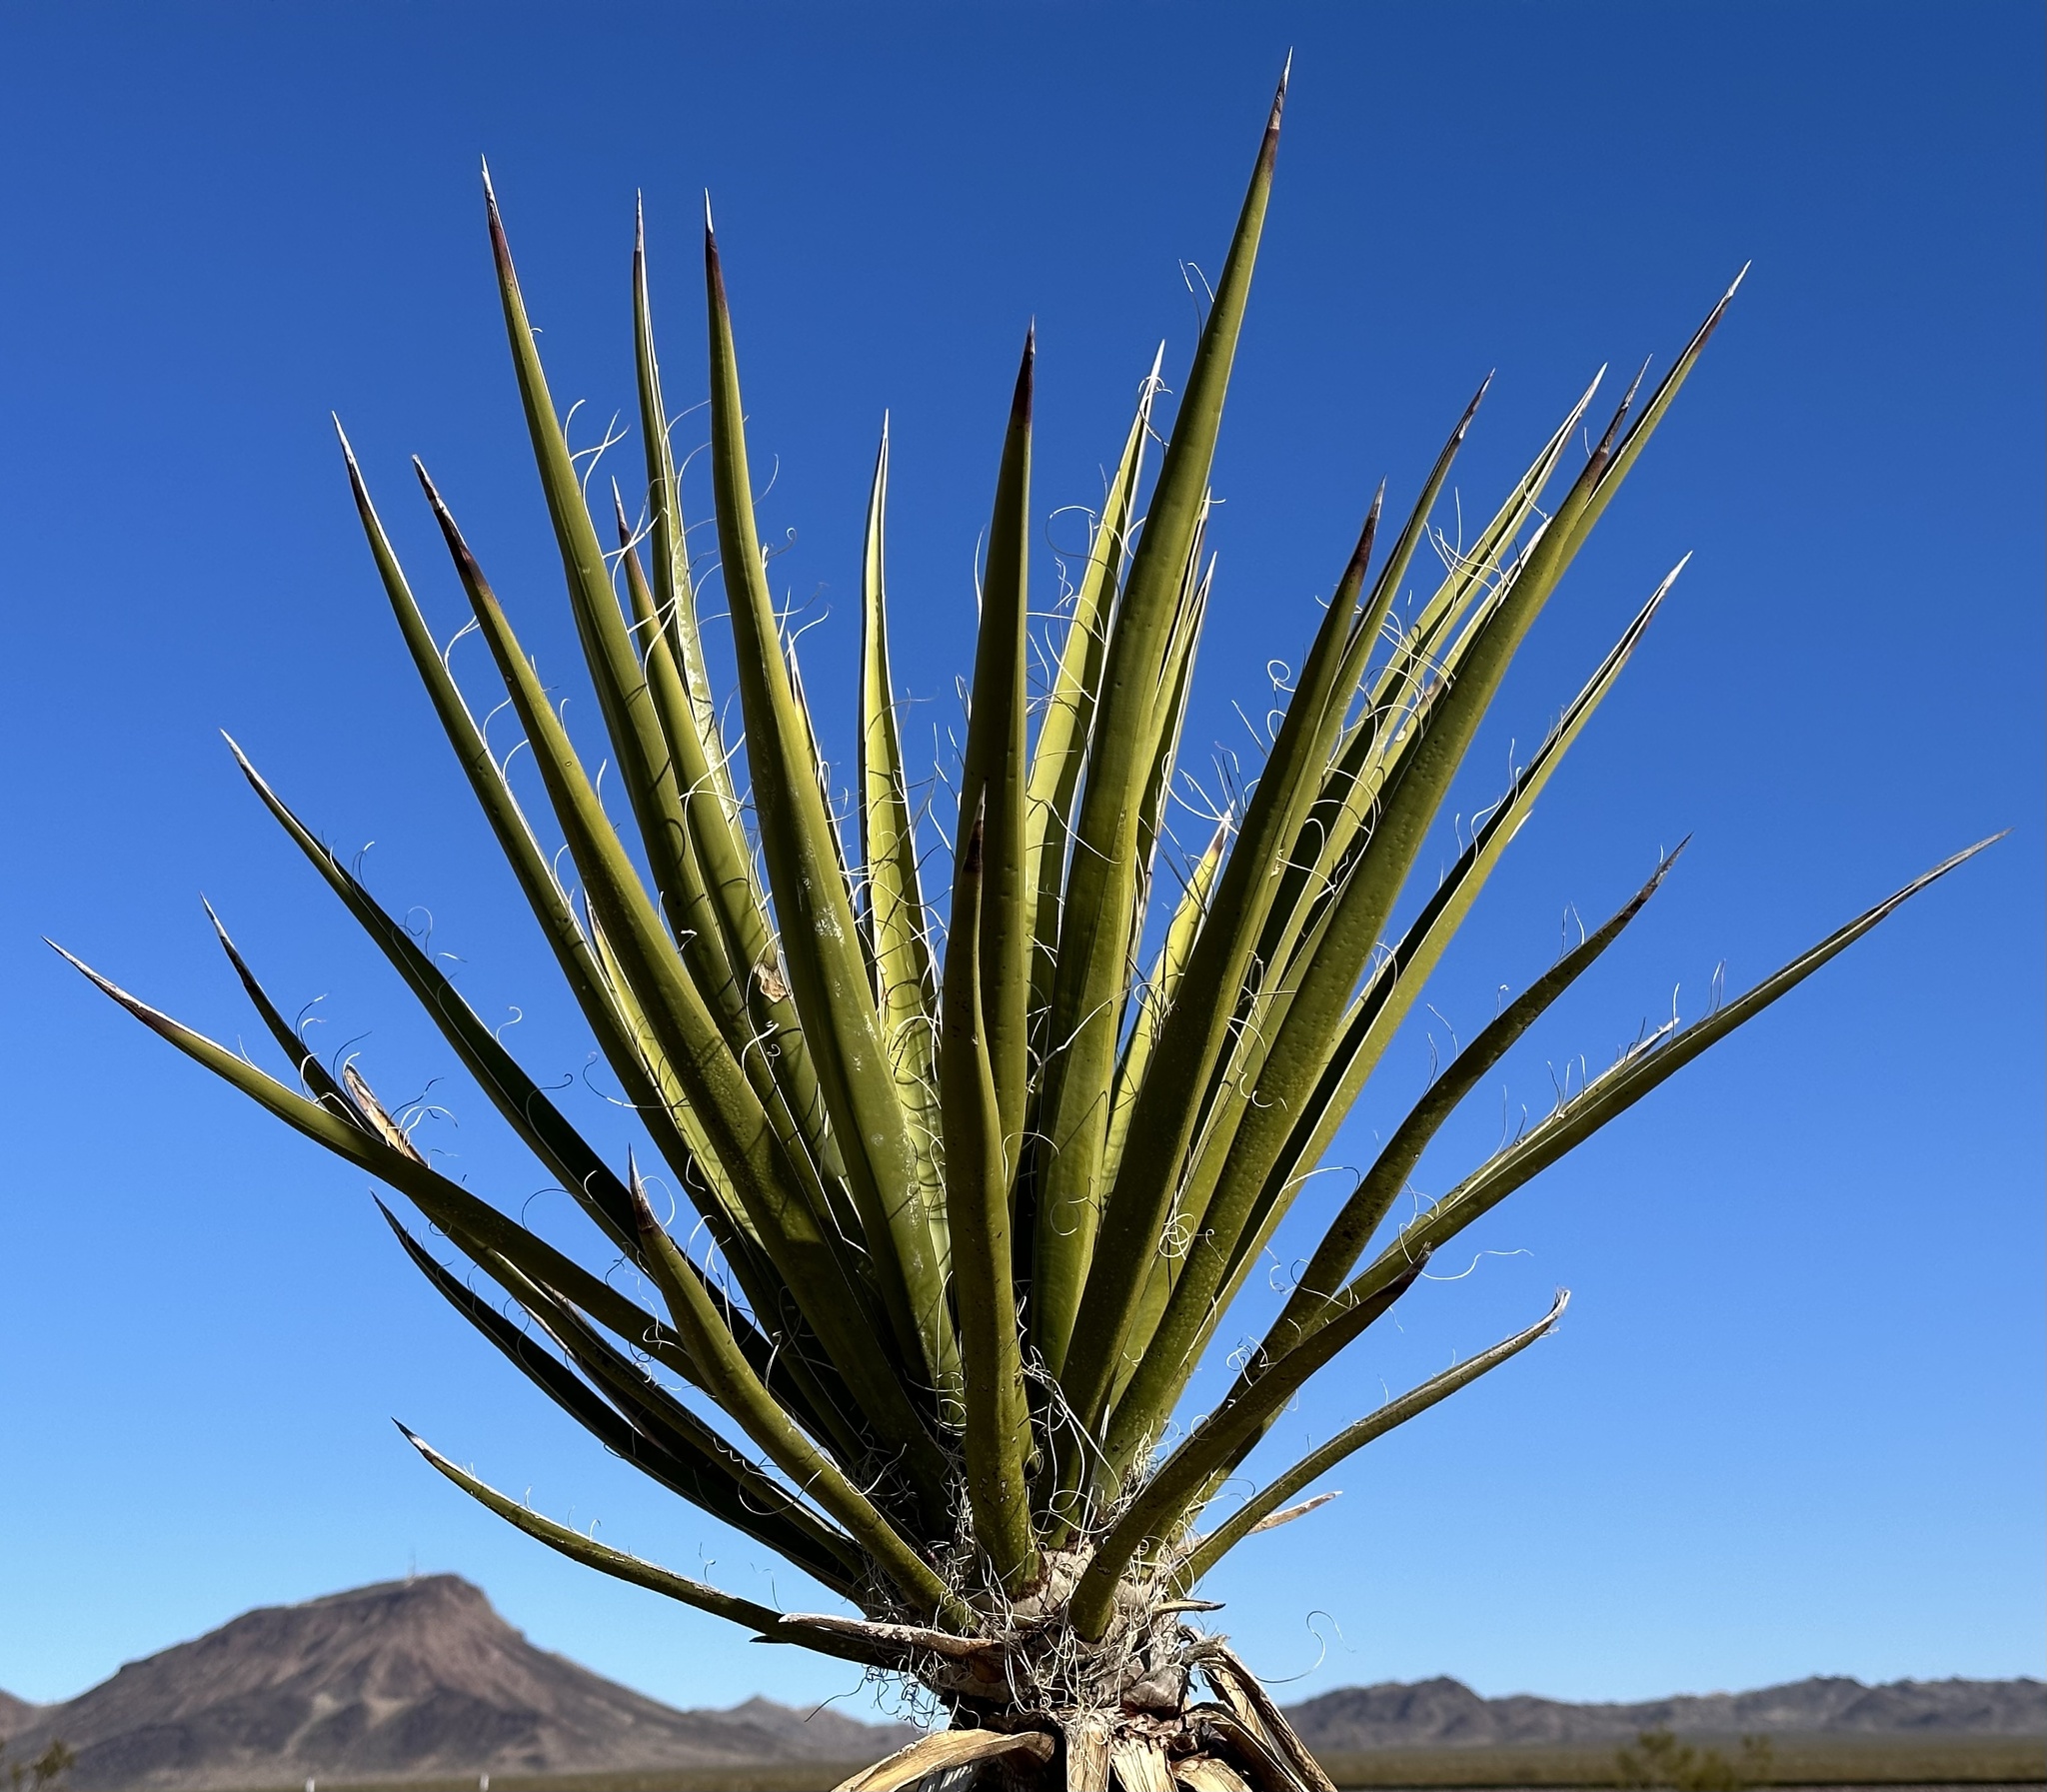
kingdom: Plantae
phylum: Tracheophyta
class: Liliopsida
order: Asparagales
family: Asparagaceae
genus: Yucca
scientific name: Yucca schidigera
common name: Mojave yucca
